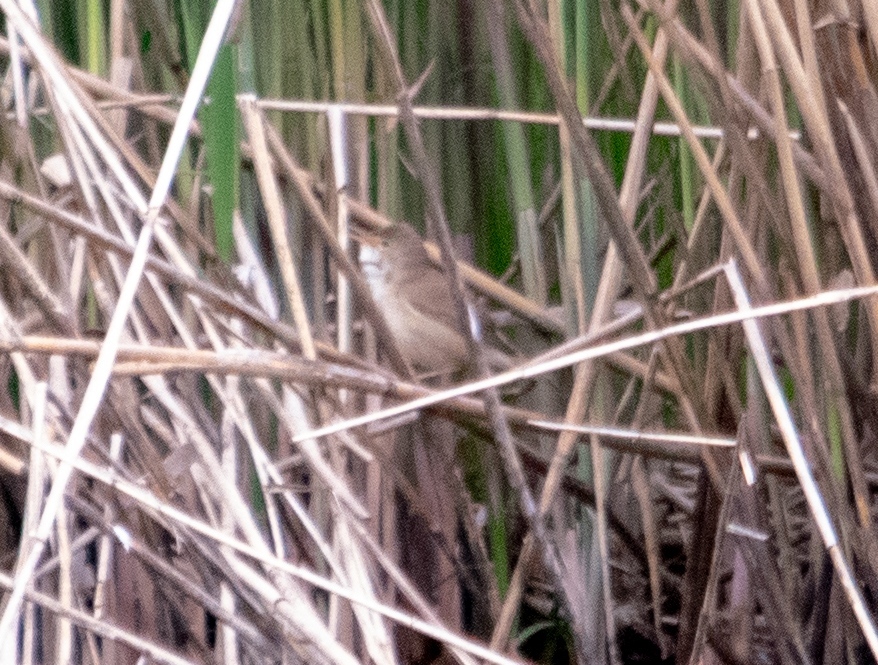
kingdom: Animalia
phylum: Chordata
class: Aves
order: Passeriformes
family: Acrocephalidae
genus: Acrocephalus
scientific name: Acrocephalus scirpaceus
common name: Eurasian reed warbler
